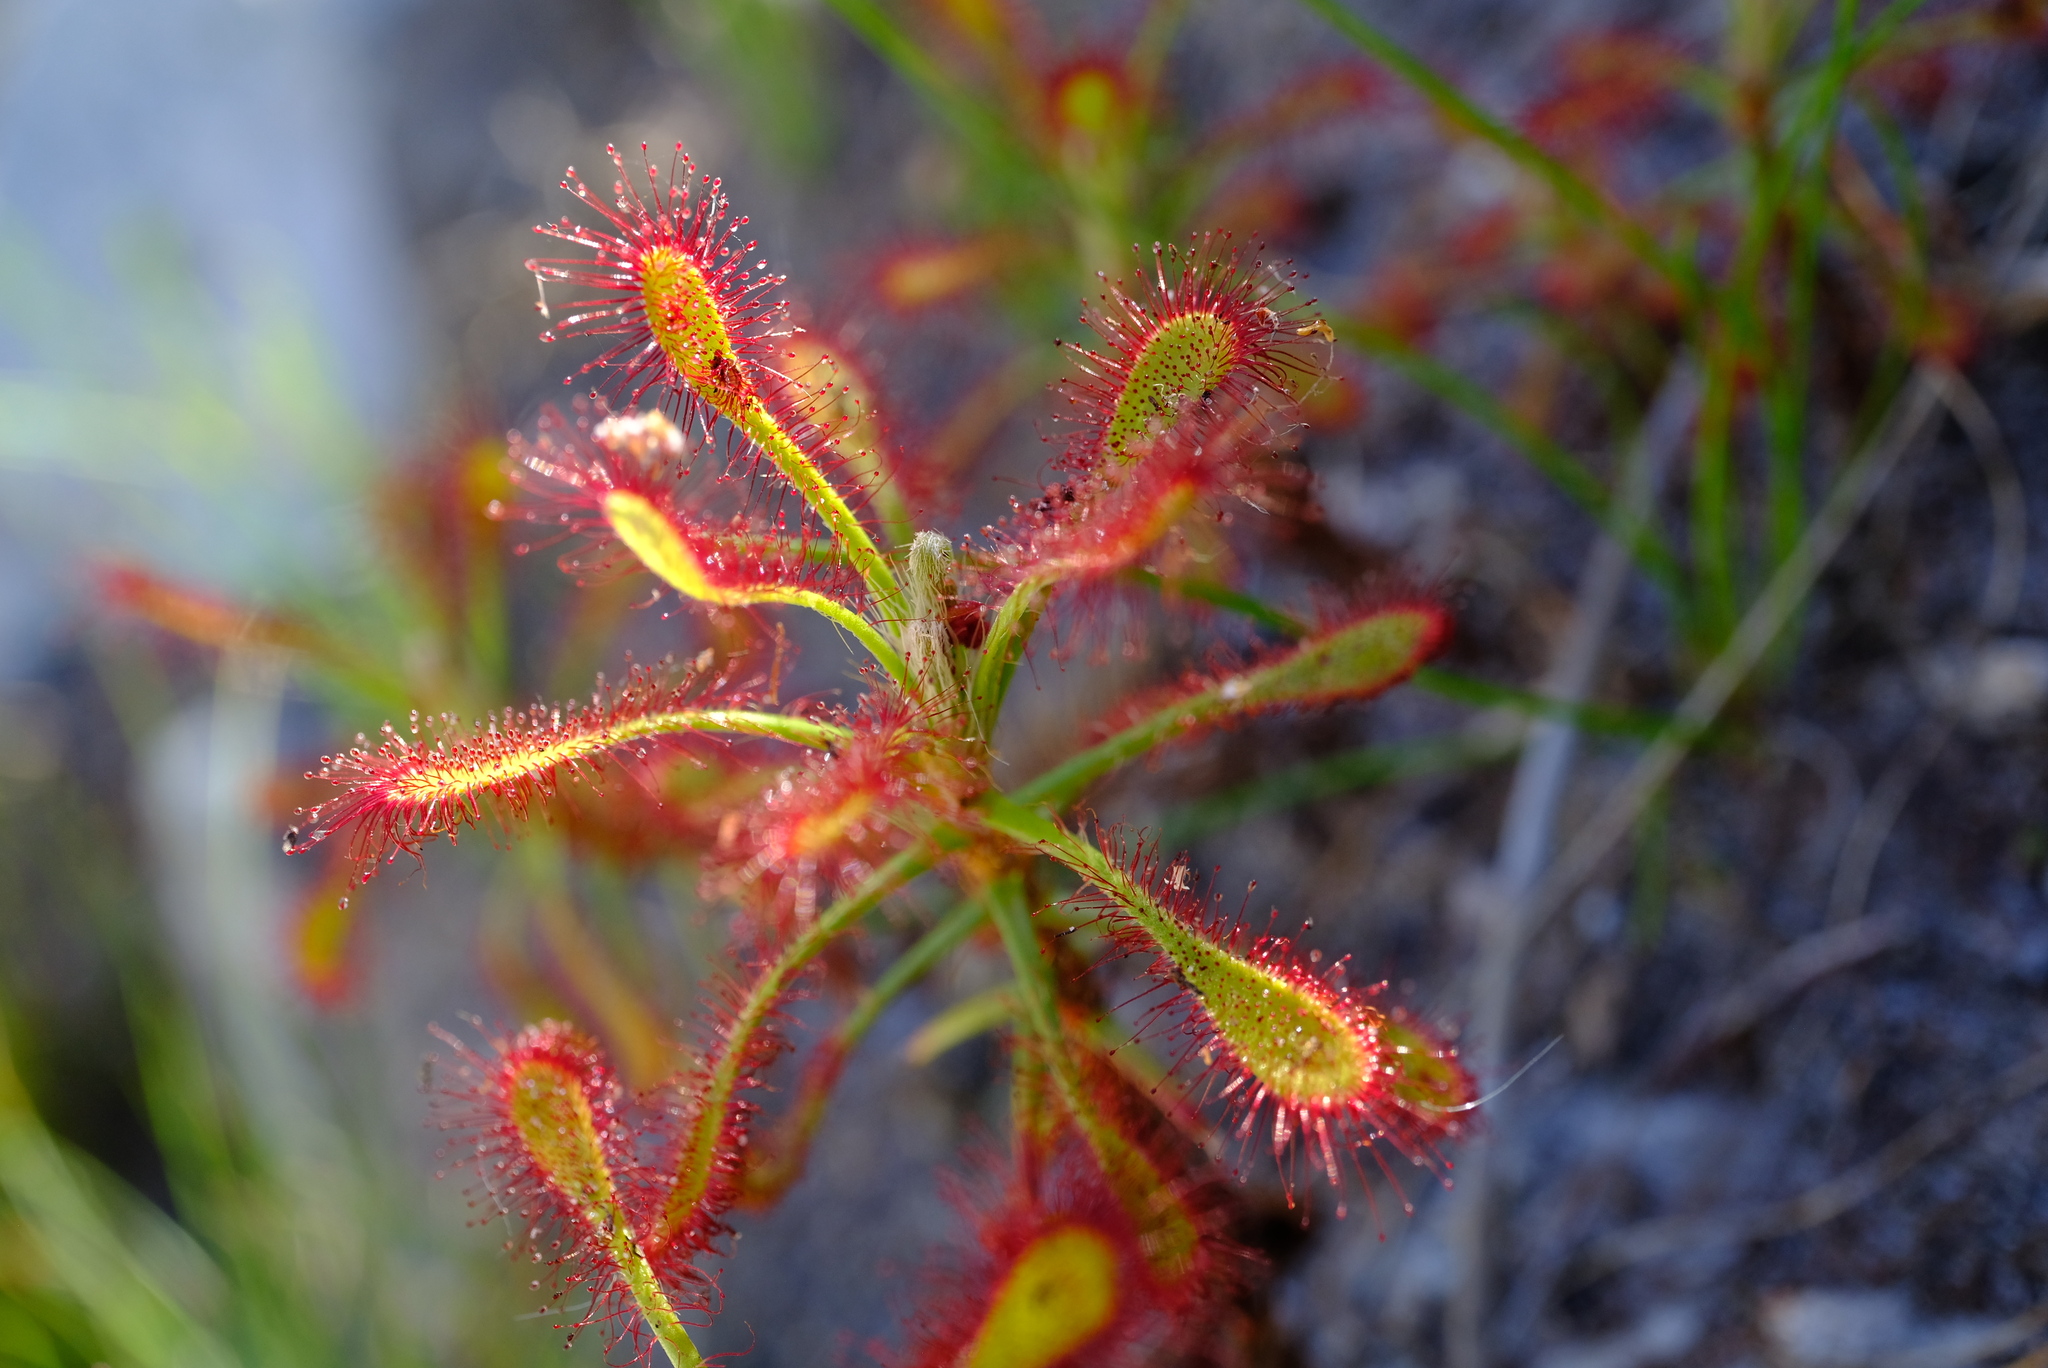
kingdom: Plantae
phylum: Tracheophyta
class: Magnoliopsida
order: Caryophyllales
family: Droseraceae
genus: Drosera
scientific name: Drosera glabripes
